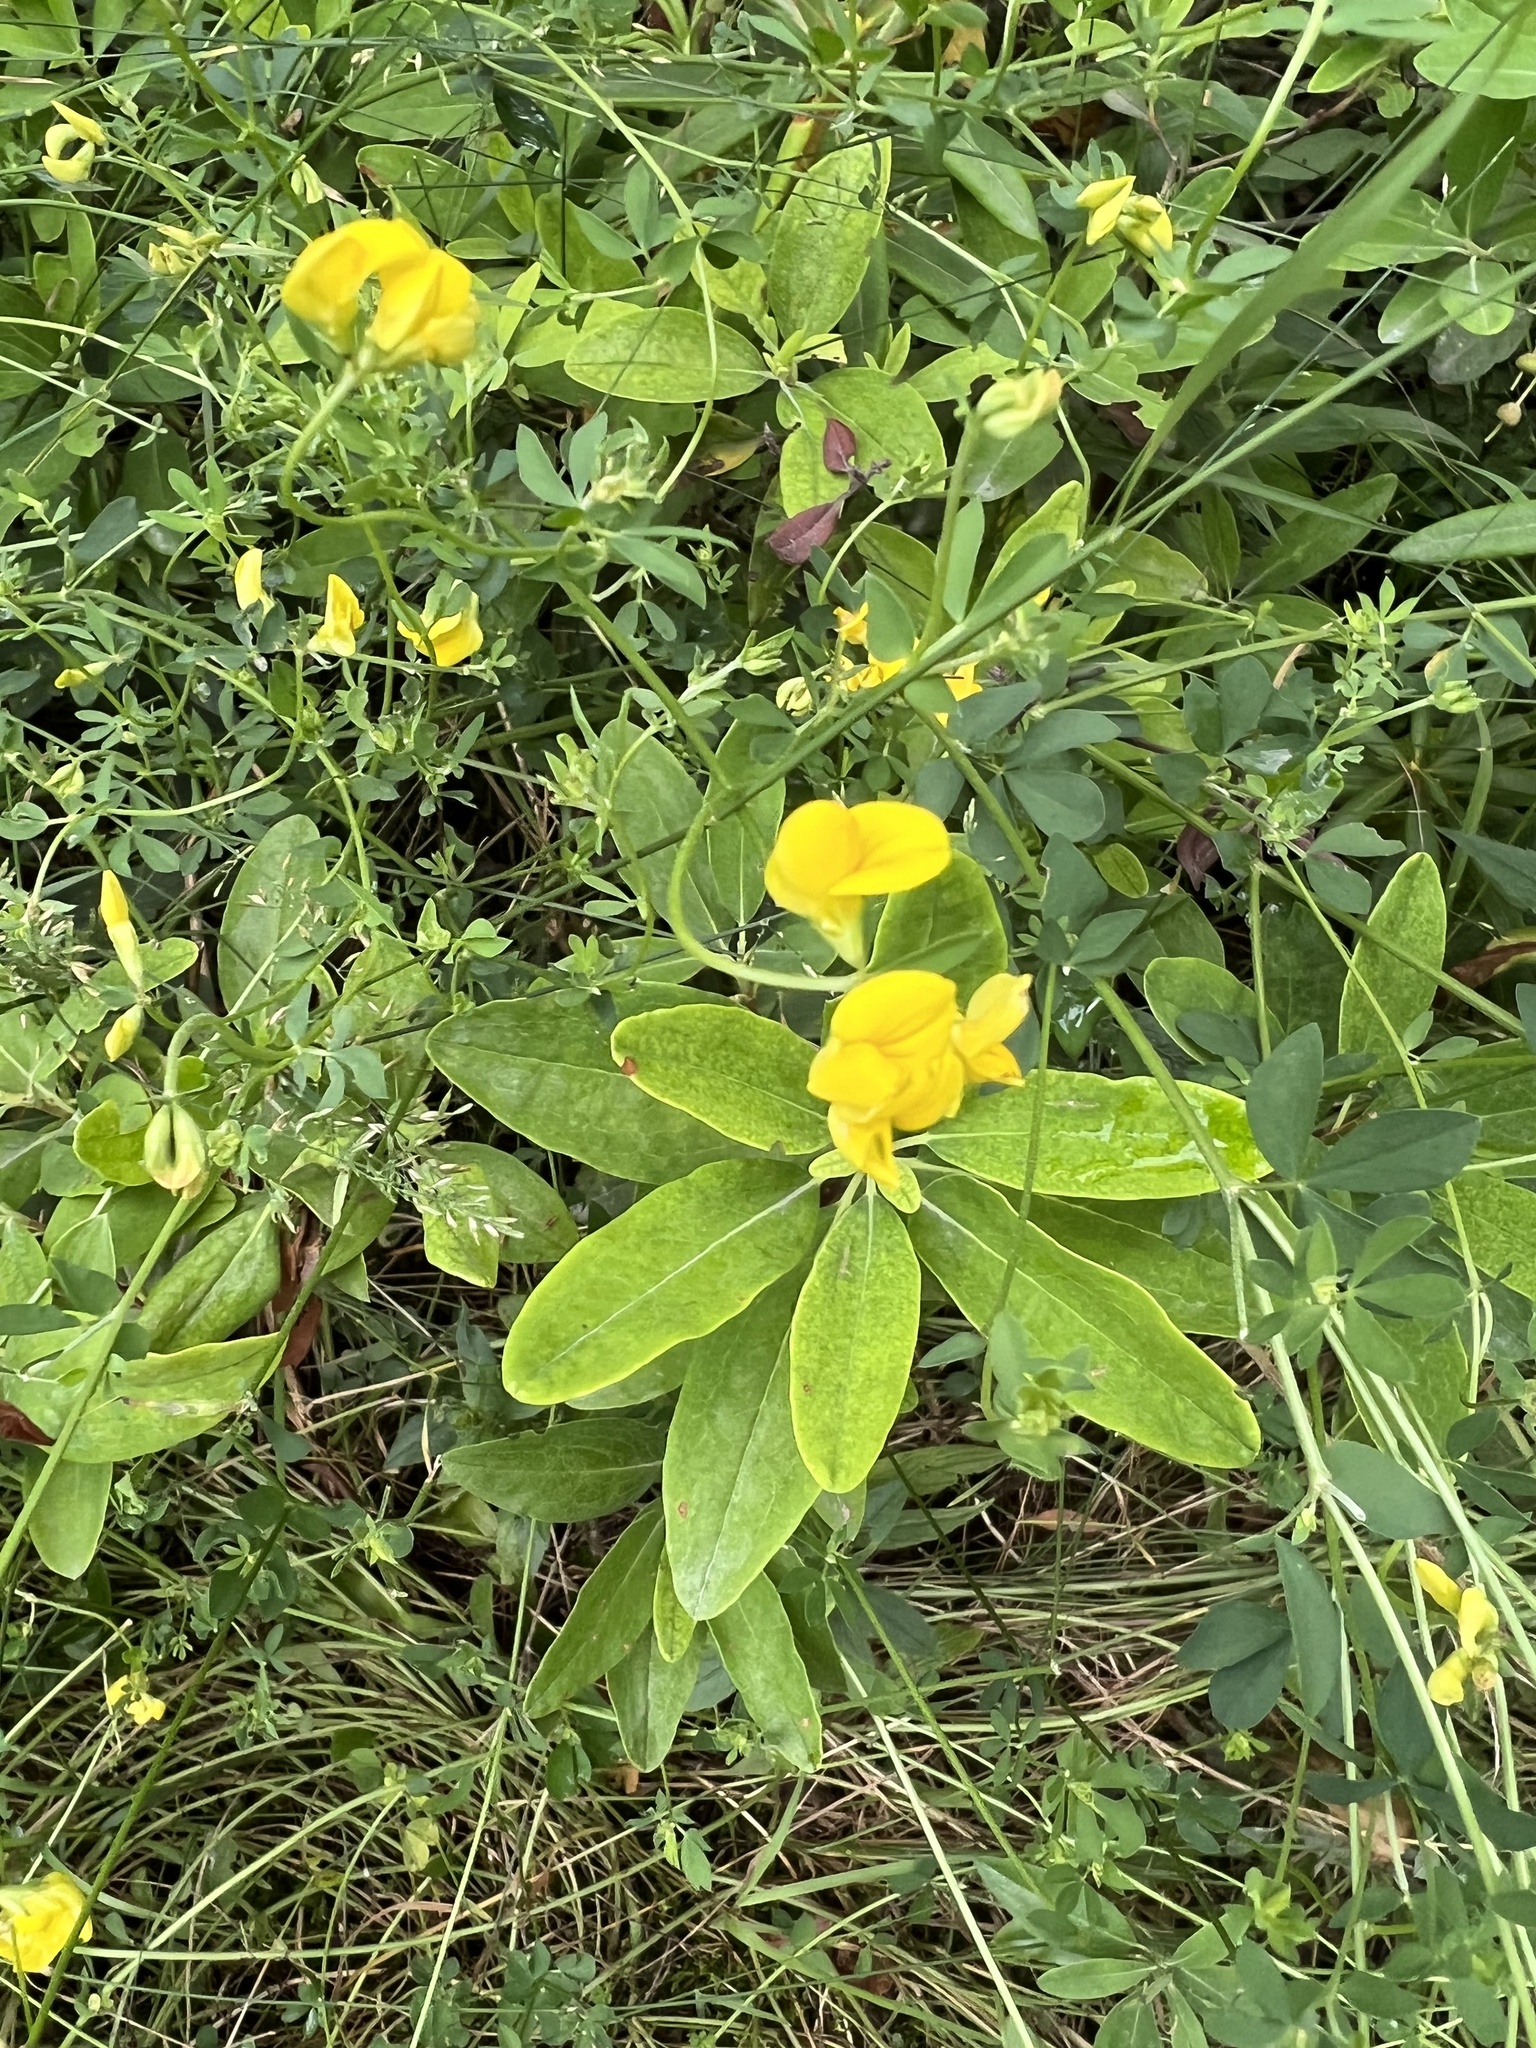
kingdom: Plantae
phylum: Tracheophyta
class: Magnoliopsida
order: Fabales
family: Fabaceae
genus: Lotus
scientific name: Lotus corniculatus
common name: Common bird's-foot-trefoil
